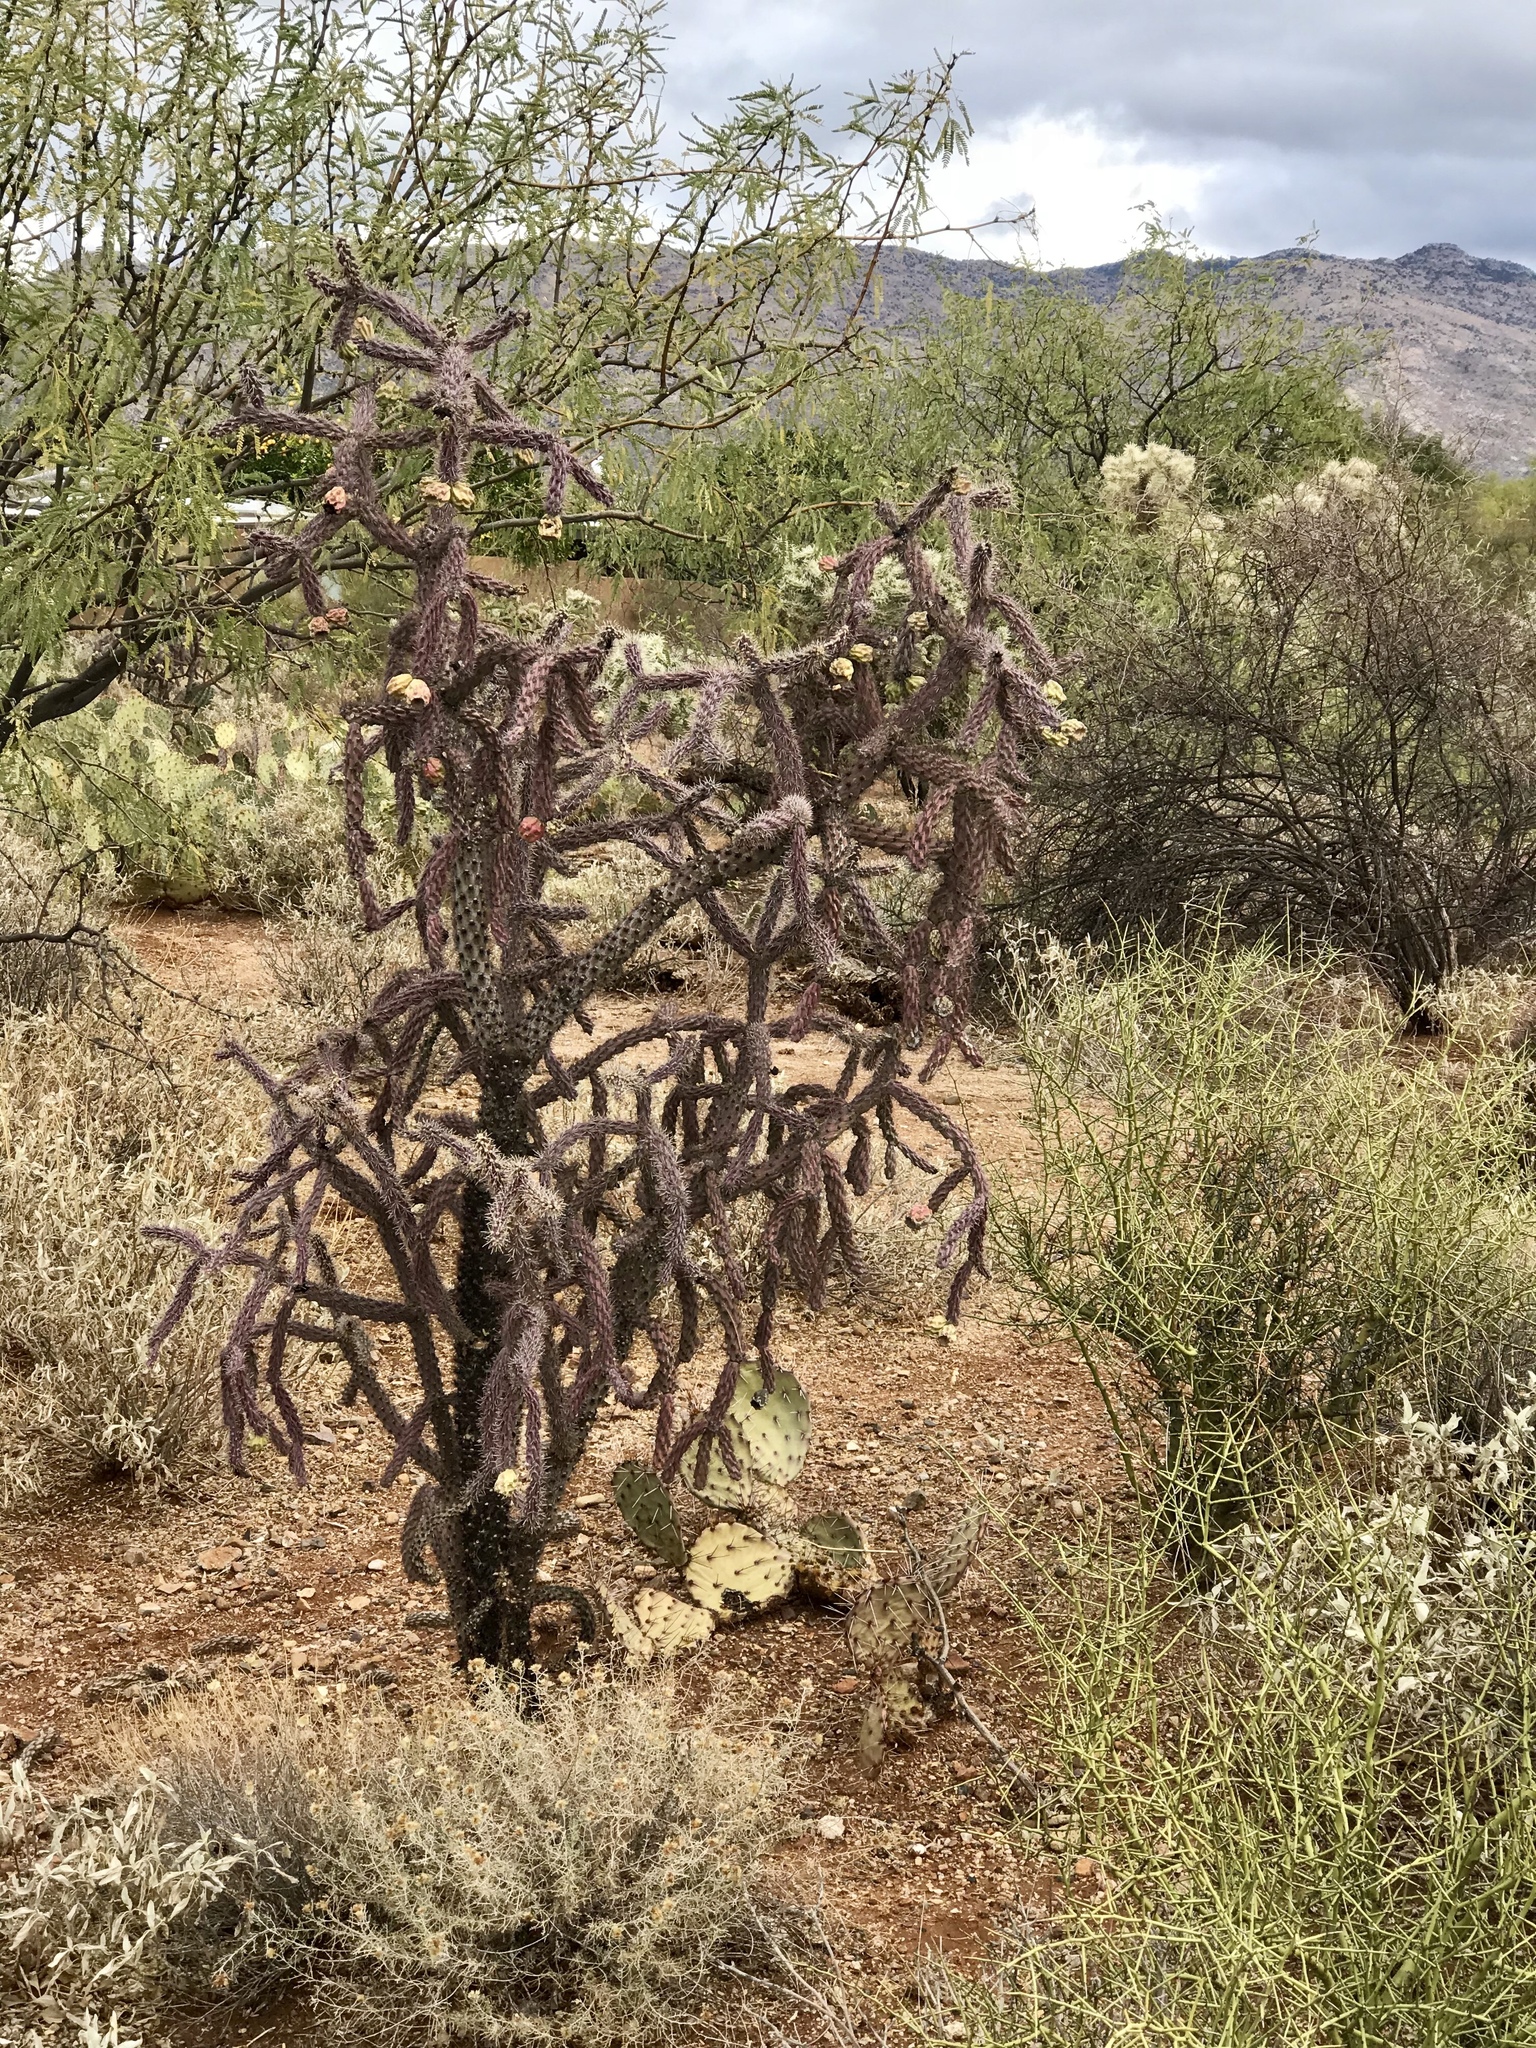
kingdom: Plantae
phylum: Tracheophyta
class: Magnoliopsida
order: Caryophyllales
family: Cactaceae
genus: Cylindropuntia
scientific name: Cylindropuntia thurberi
